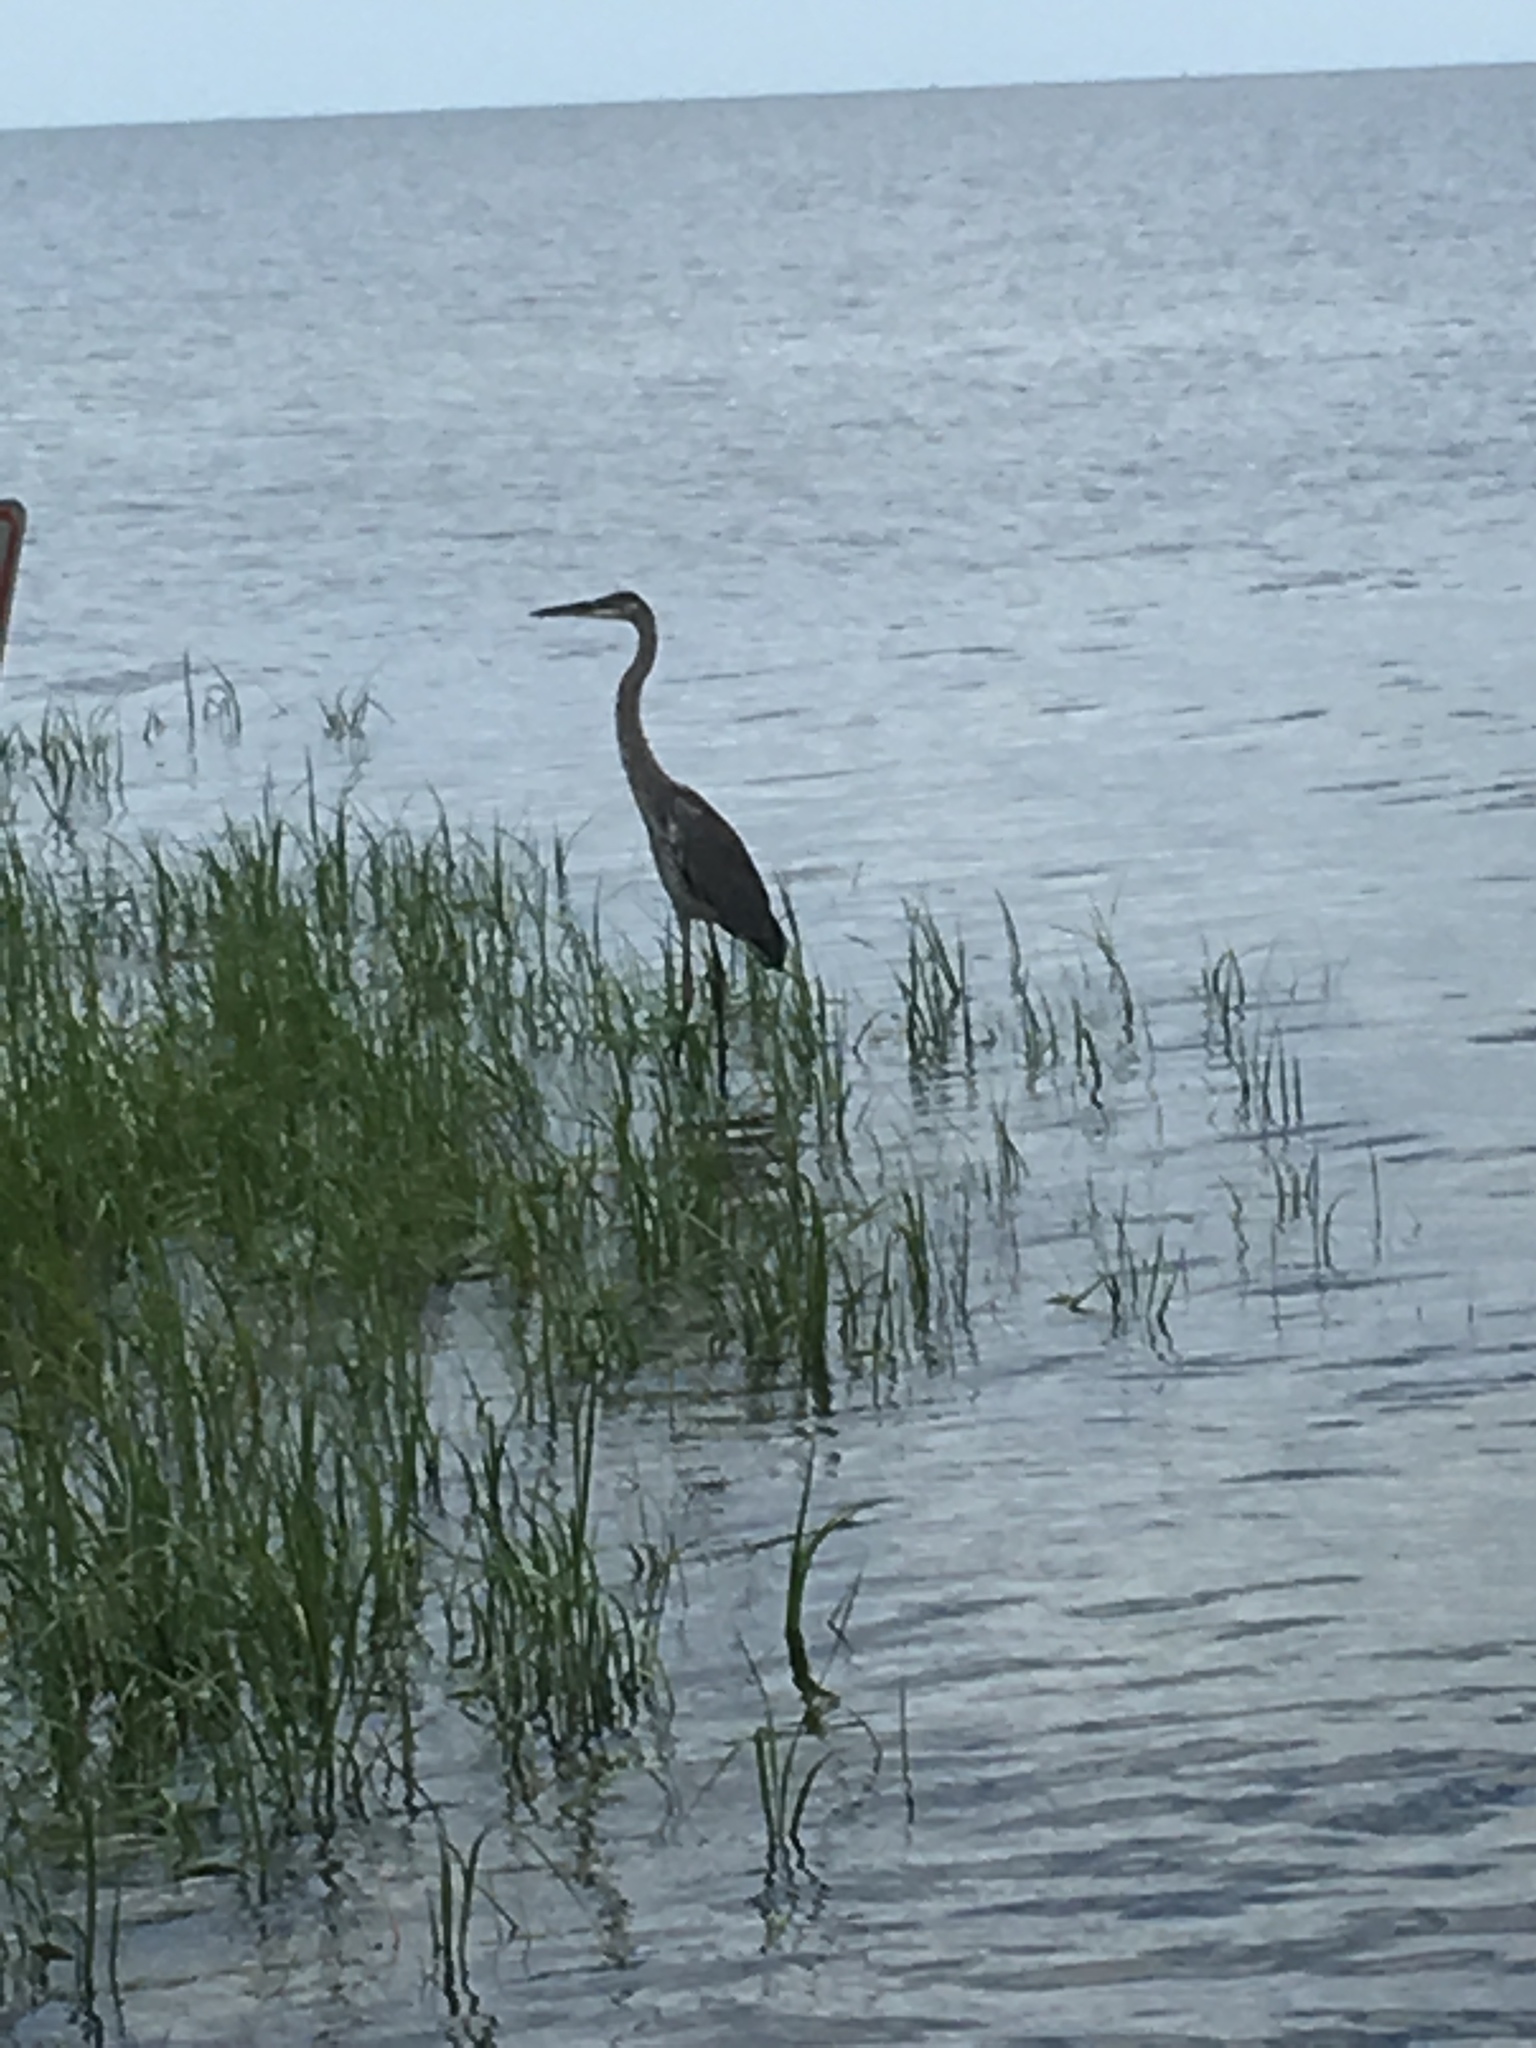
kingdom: Animalia
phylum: Chordata
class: Aves
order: Pelecaniformes
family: Ardeidae
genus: Ardea
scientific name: Ardea herodias
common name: Great blue heron
